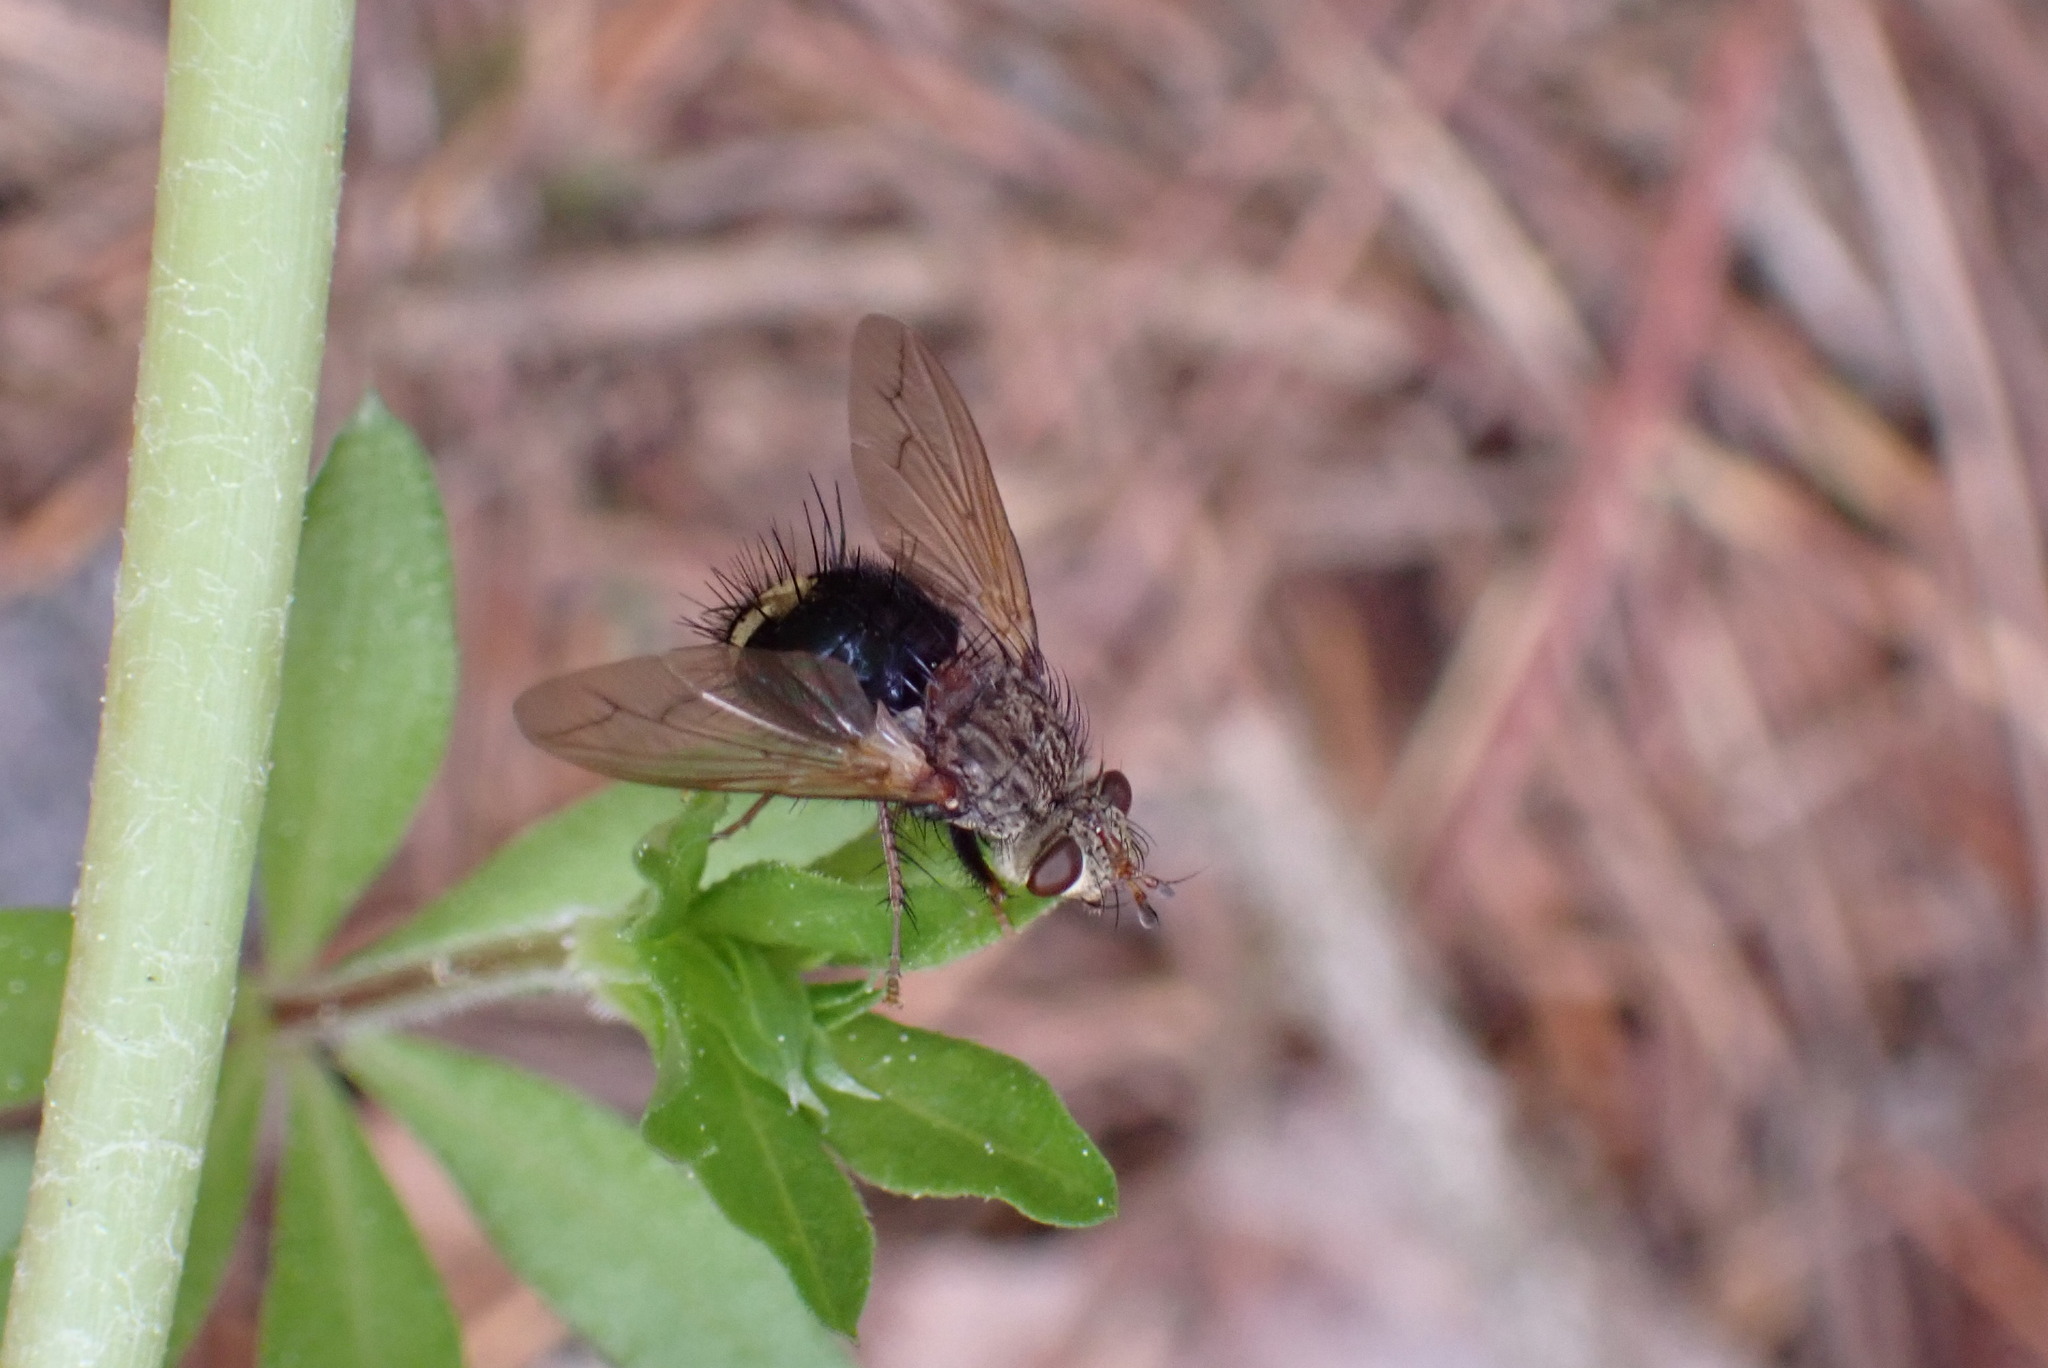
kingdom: Animalia
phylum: Arthropoda
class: Insecta
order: Diptera
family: Tachinidae
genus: Epalpus
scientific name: Epalpus signifer
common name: Early tachinid fly
